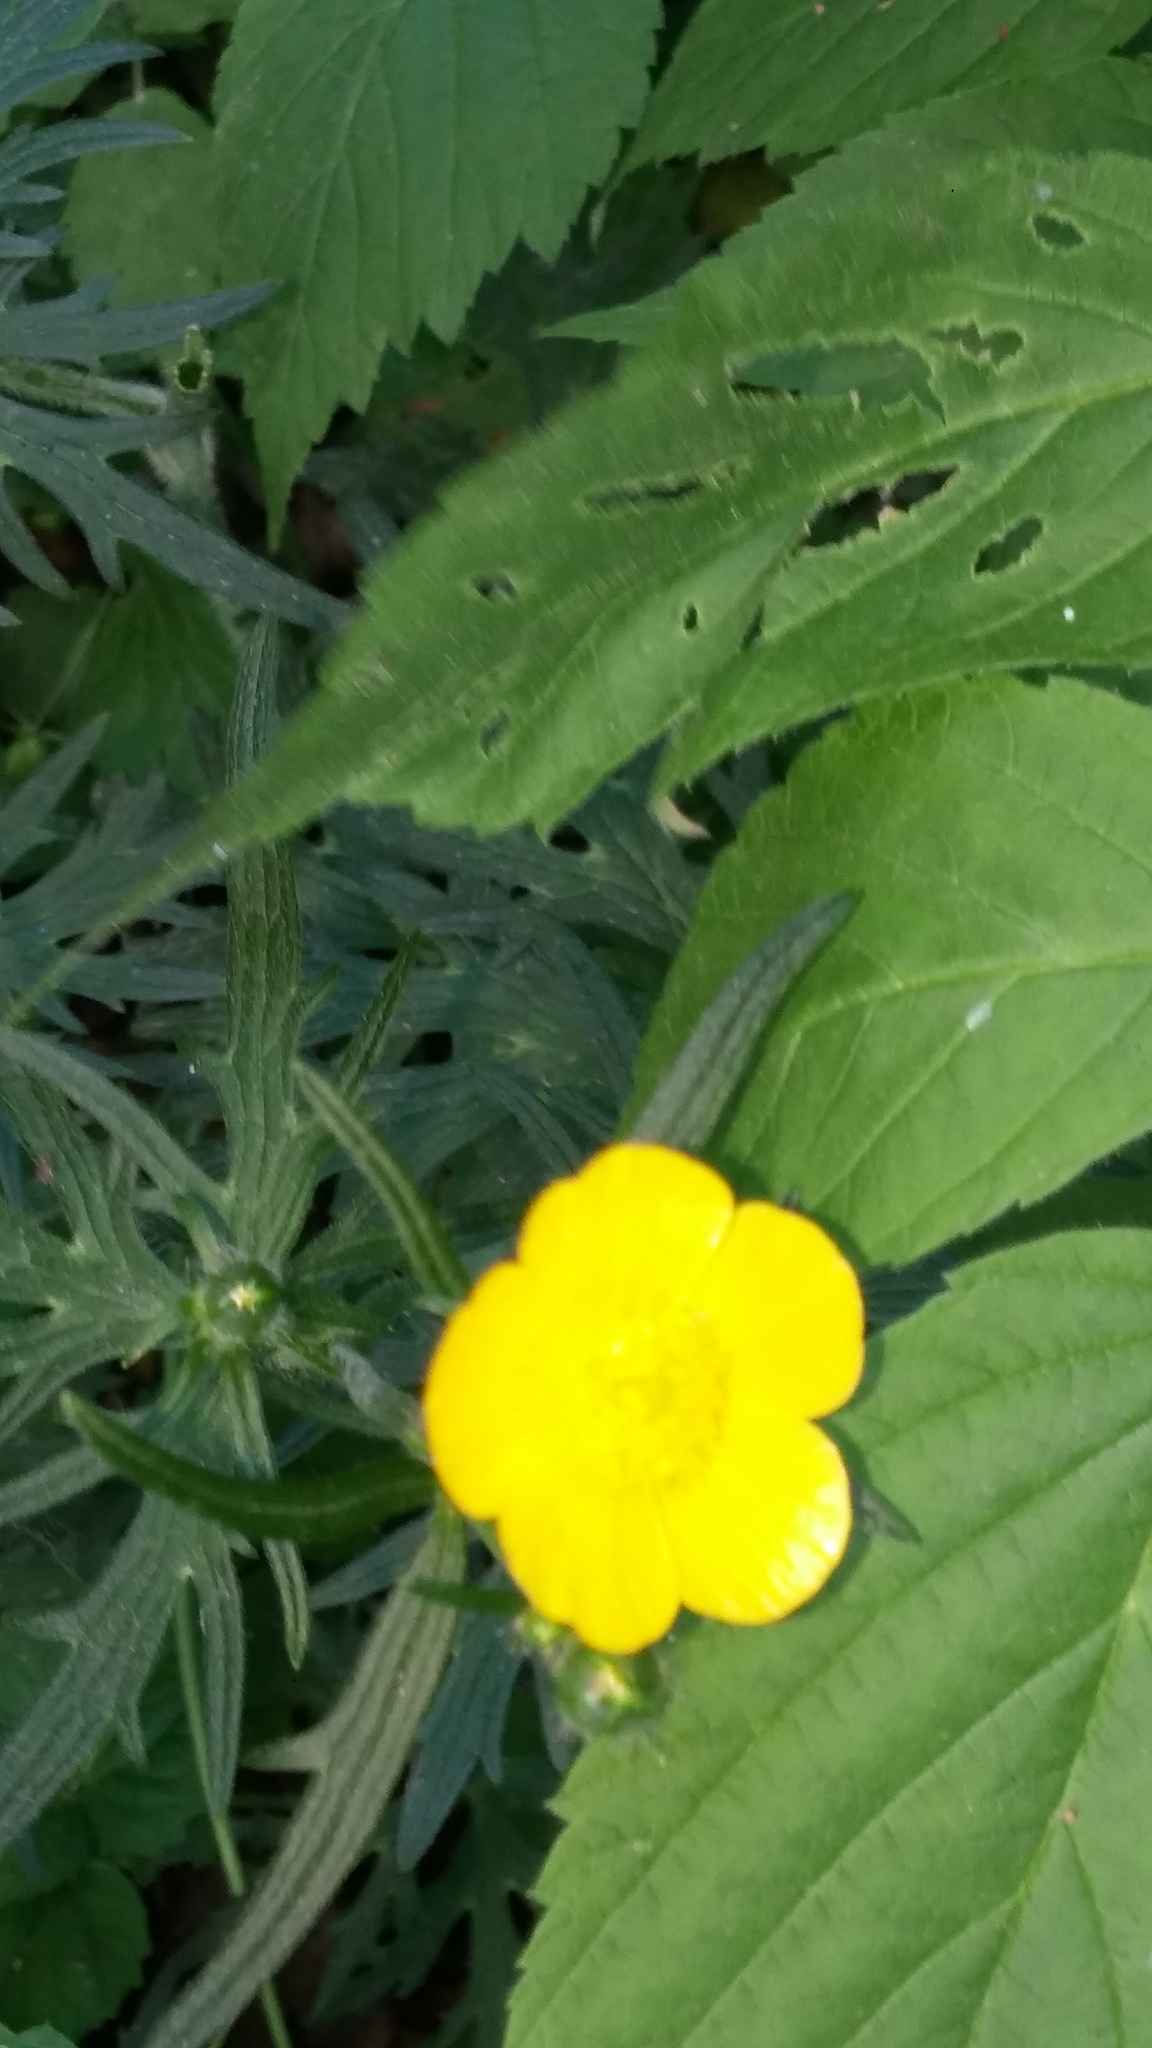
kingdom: Plantae
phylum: Tracheophyta
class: Magnoliopsida
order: Ranunculales
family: Ranunculaceae
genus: Ranunculus
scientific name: Ranunculus acris
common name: Meadow buttercup
